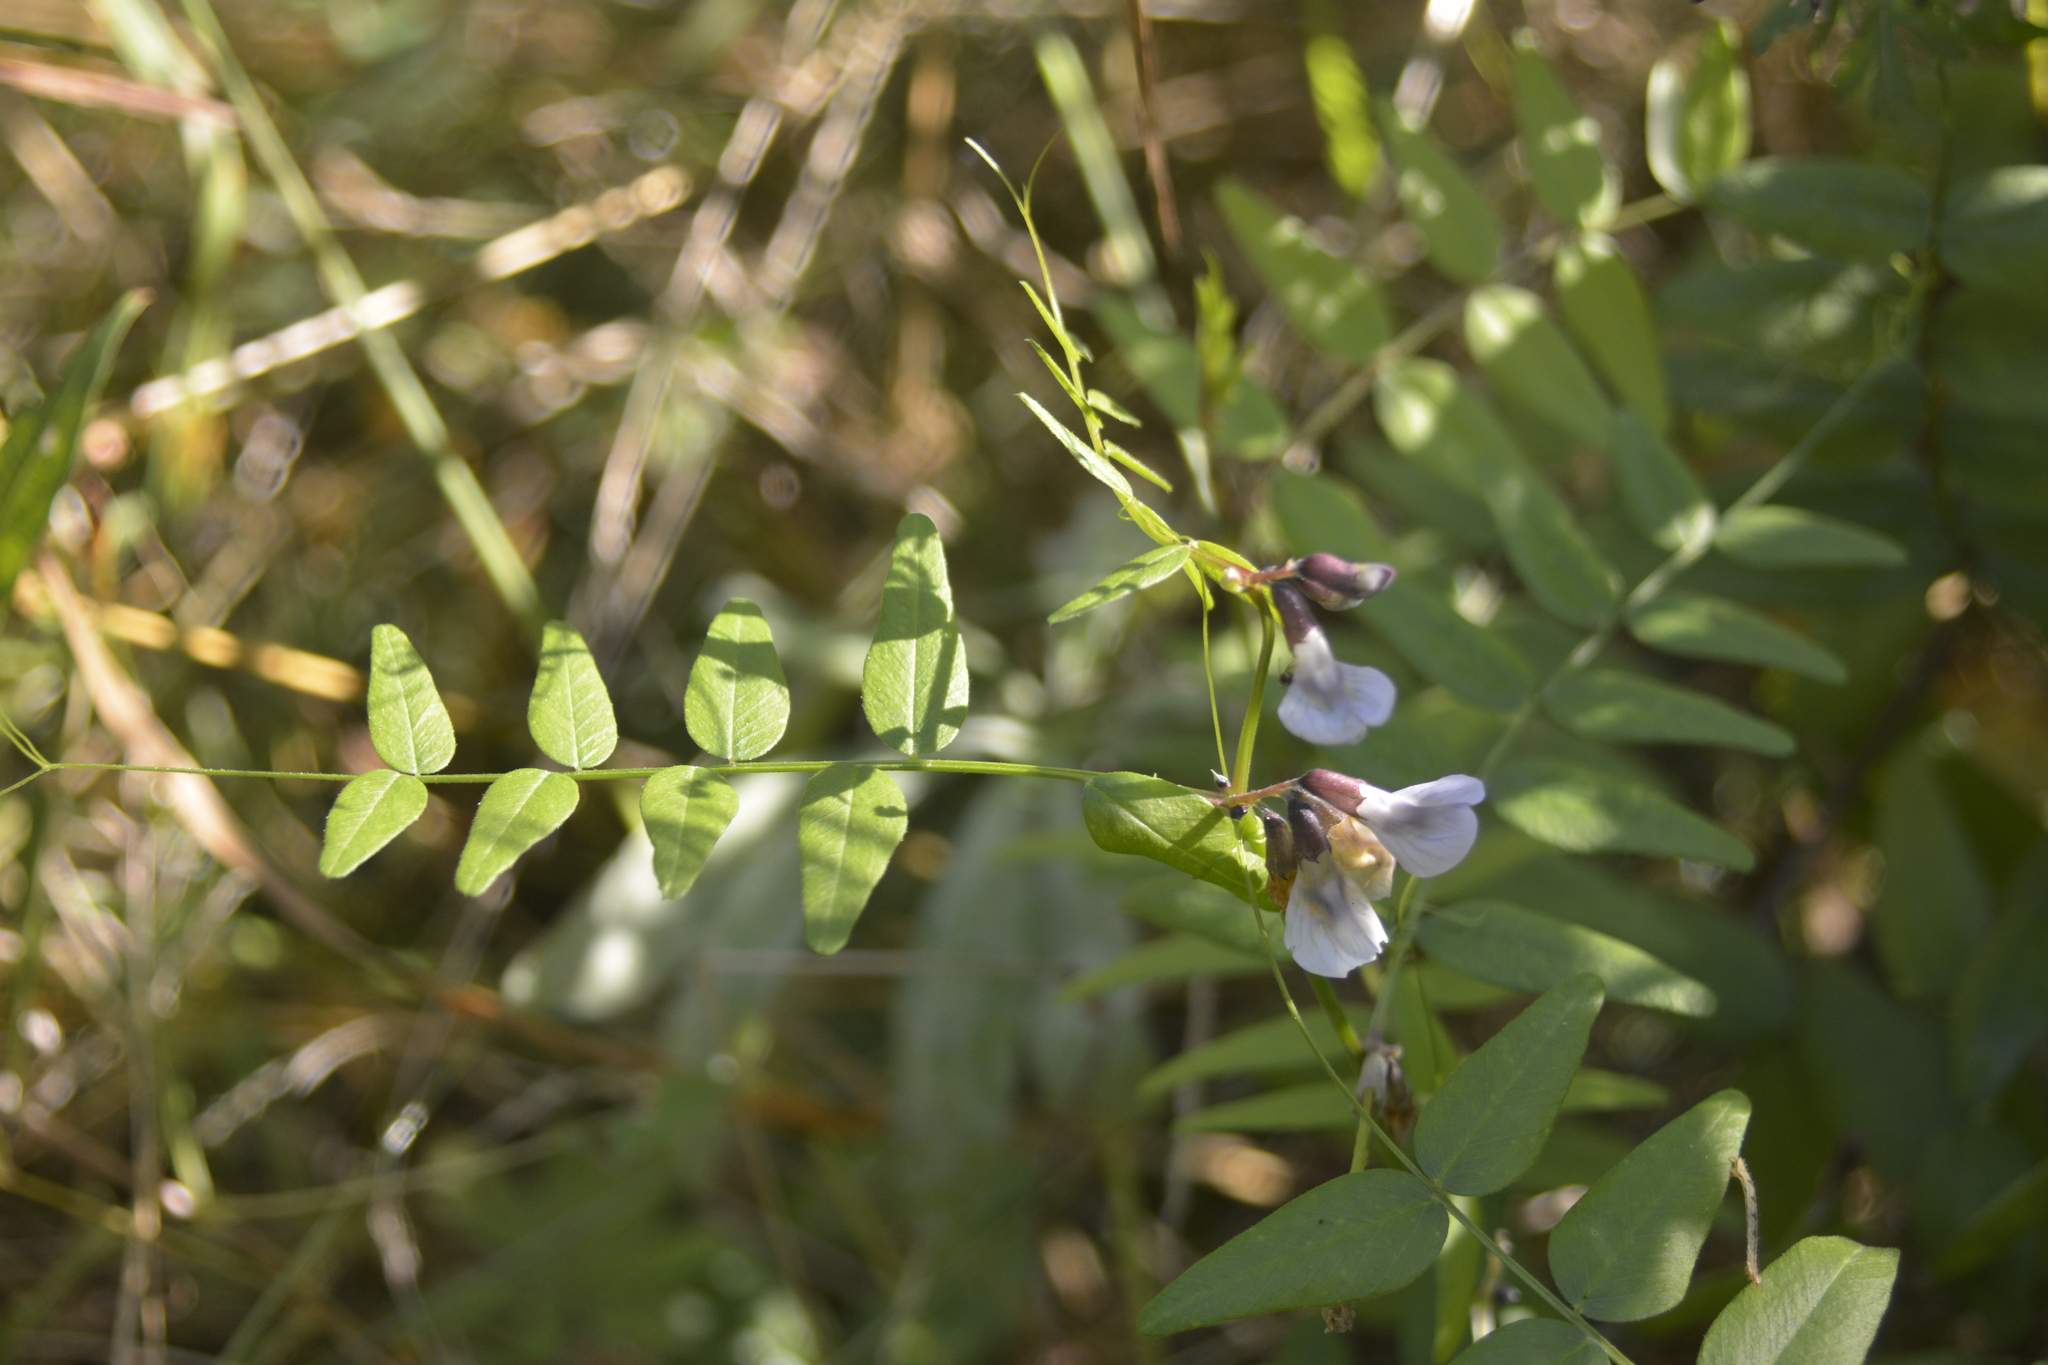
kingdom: Plantae
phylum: Tracheophyta
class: Magnoliopsida
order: Fabales
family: Fabaceae
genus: Vicia
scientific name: Vicia sepium
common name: Bush vetch
